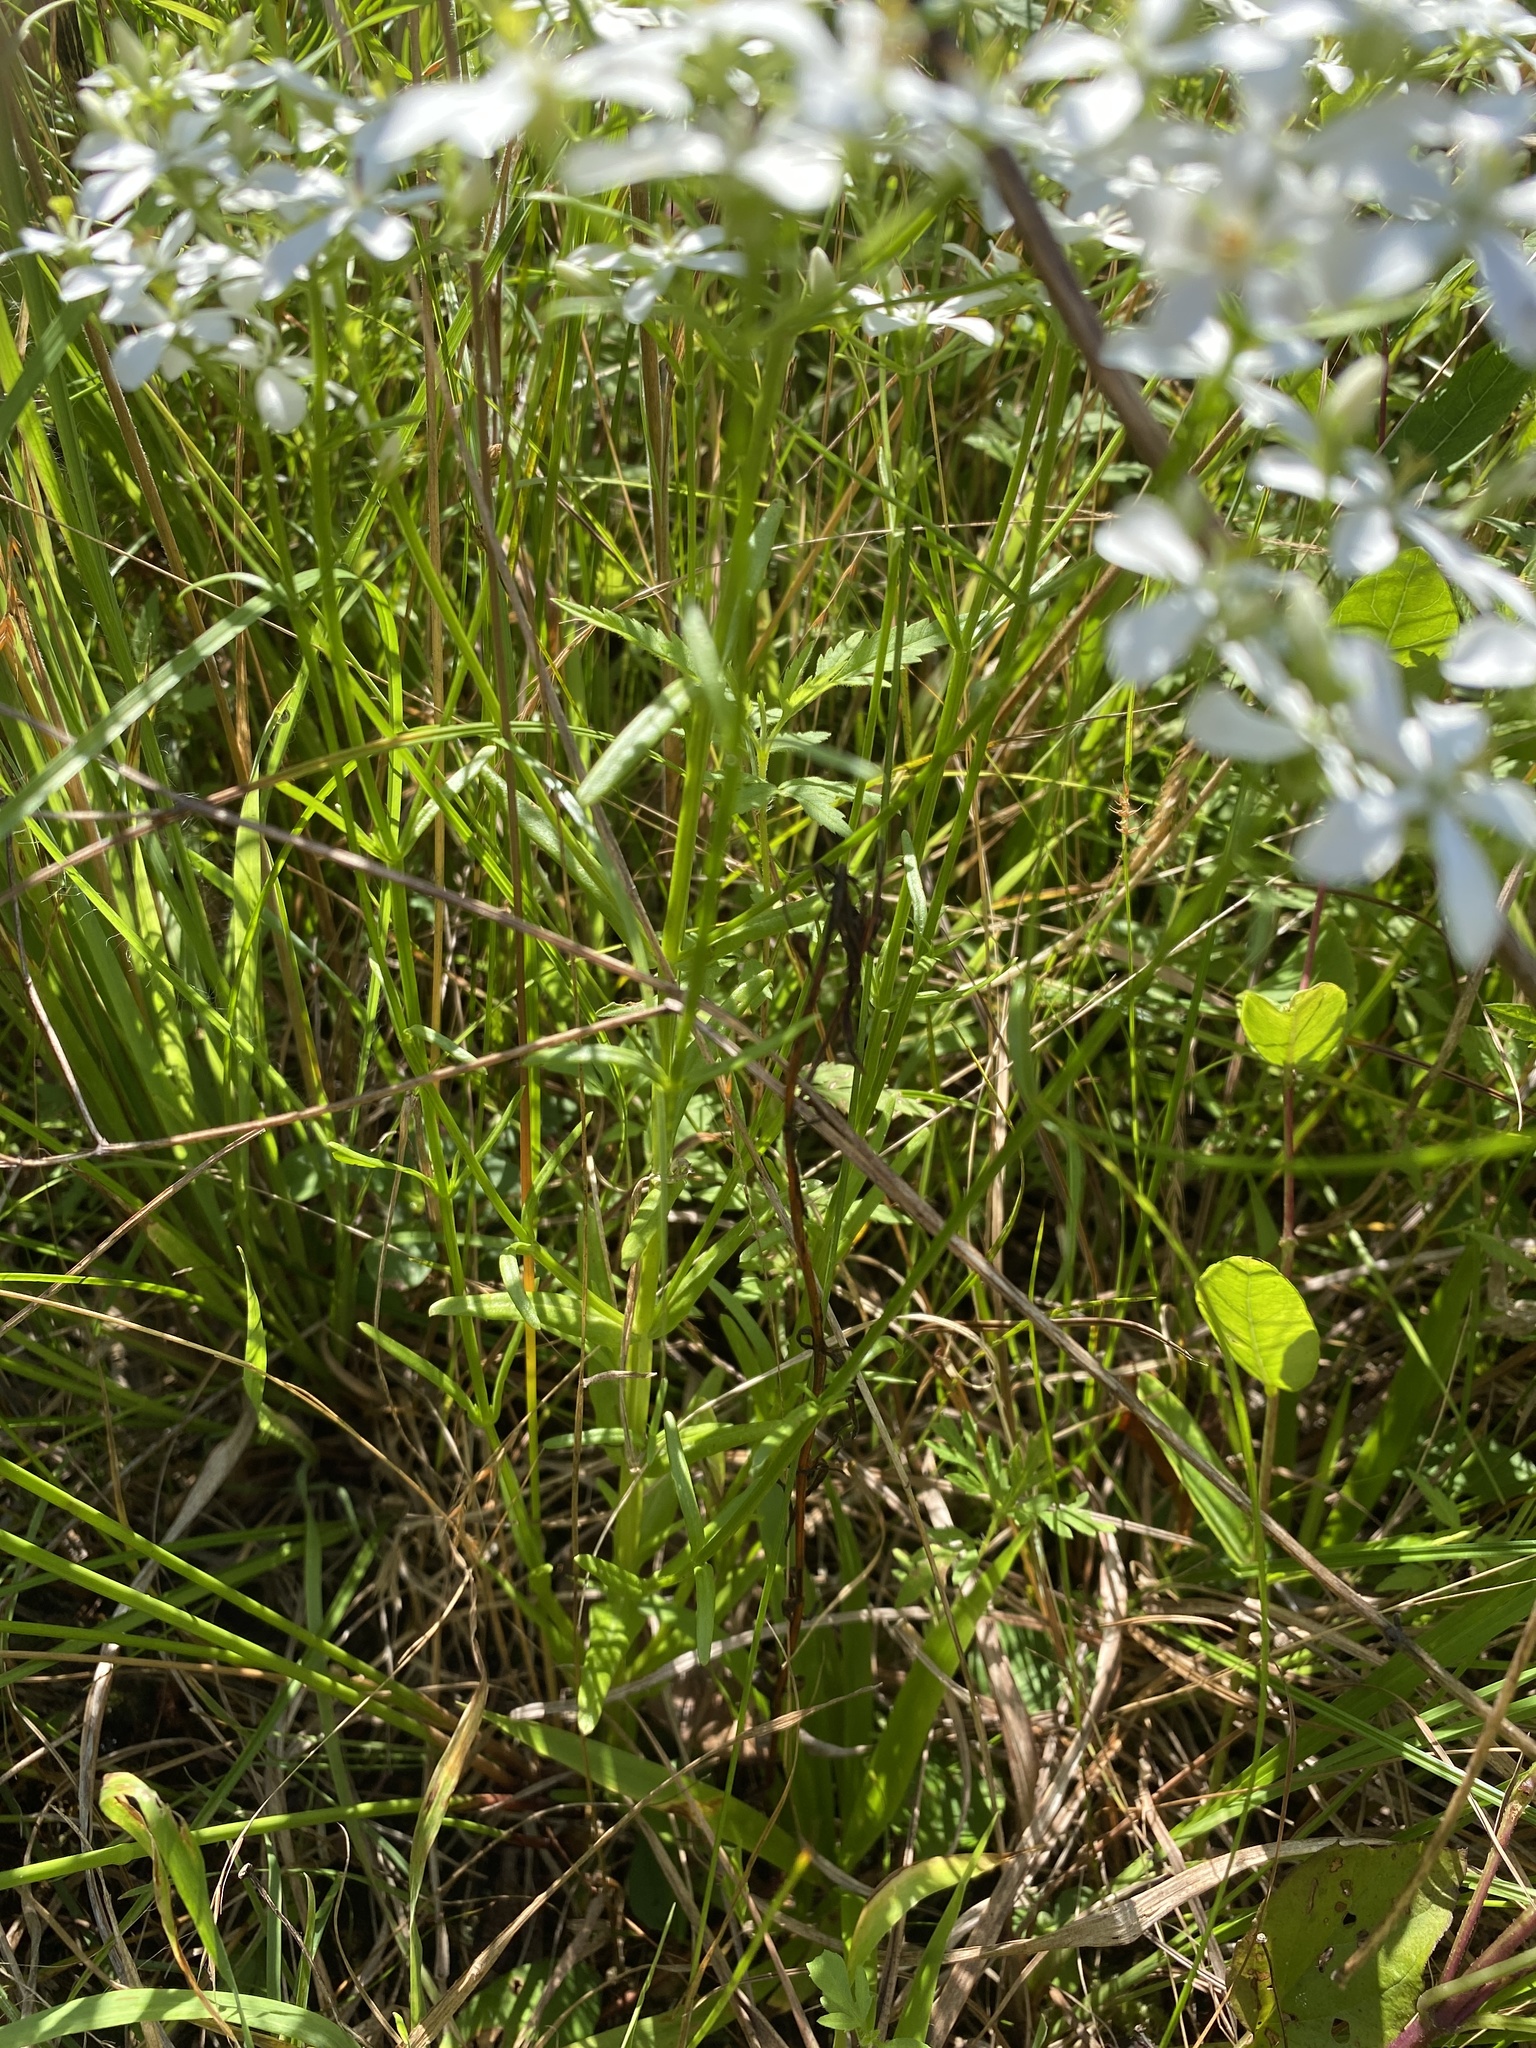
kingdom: Plantae
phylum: Tracheophyta
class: Magnoliopsida
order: Gentianales
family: Gentianaceae
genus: Sabatia
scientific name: Sabatia quadrangula
